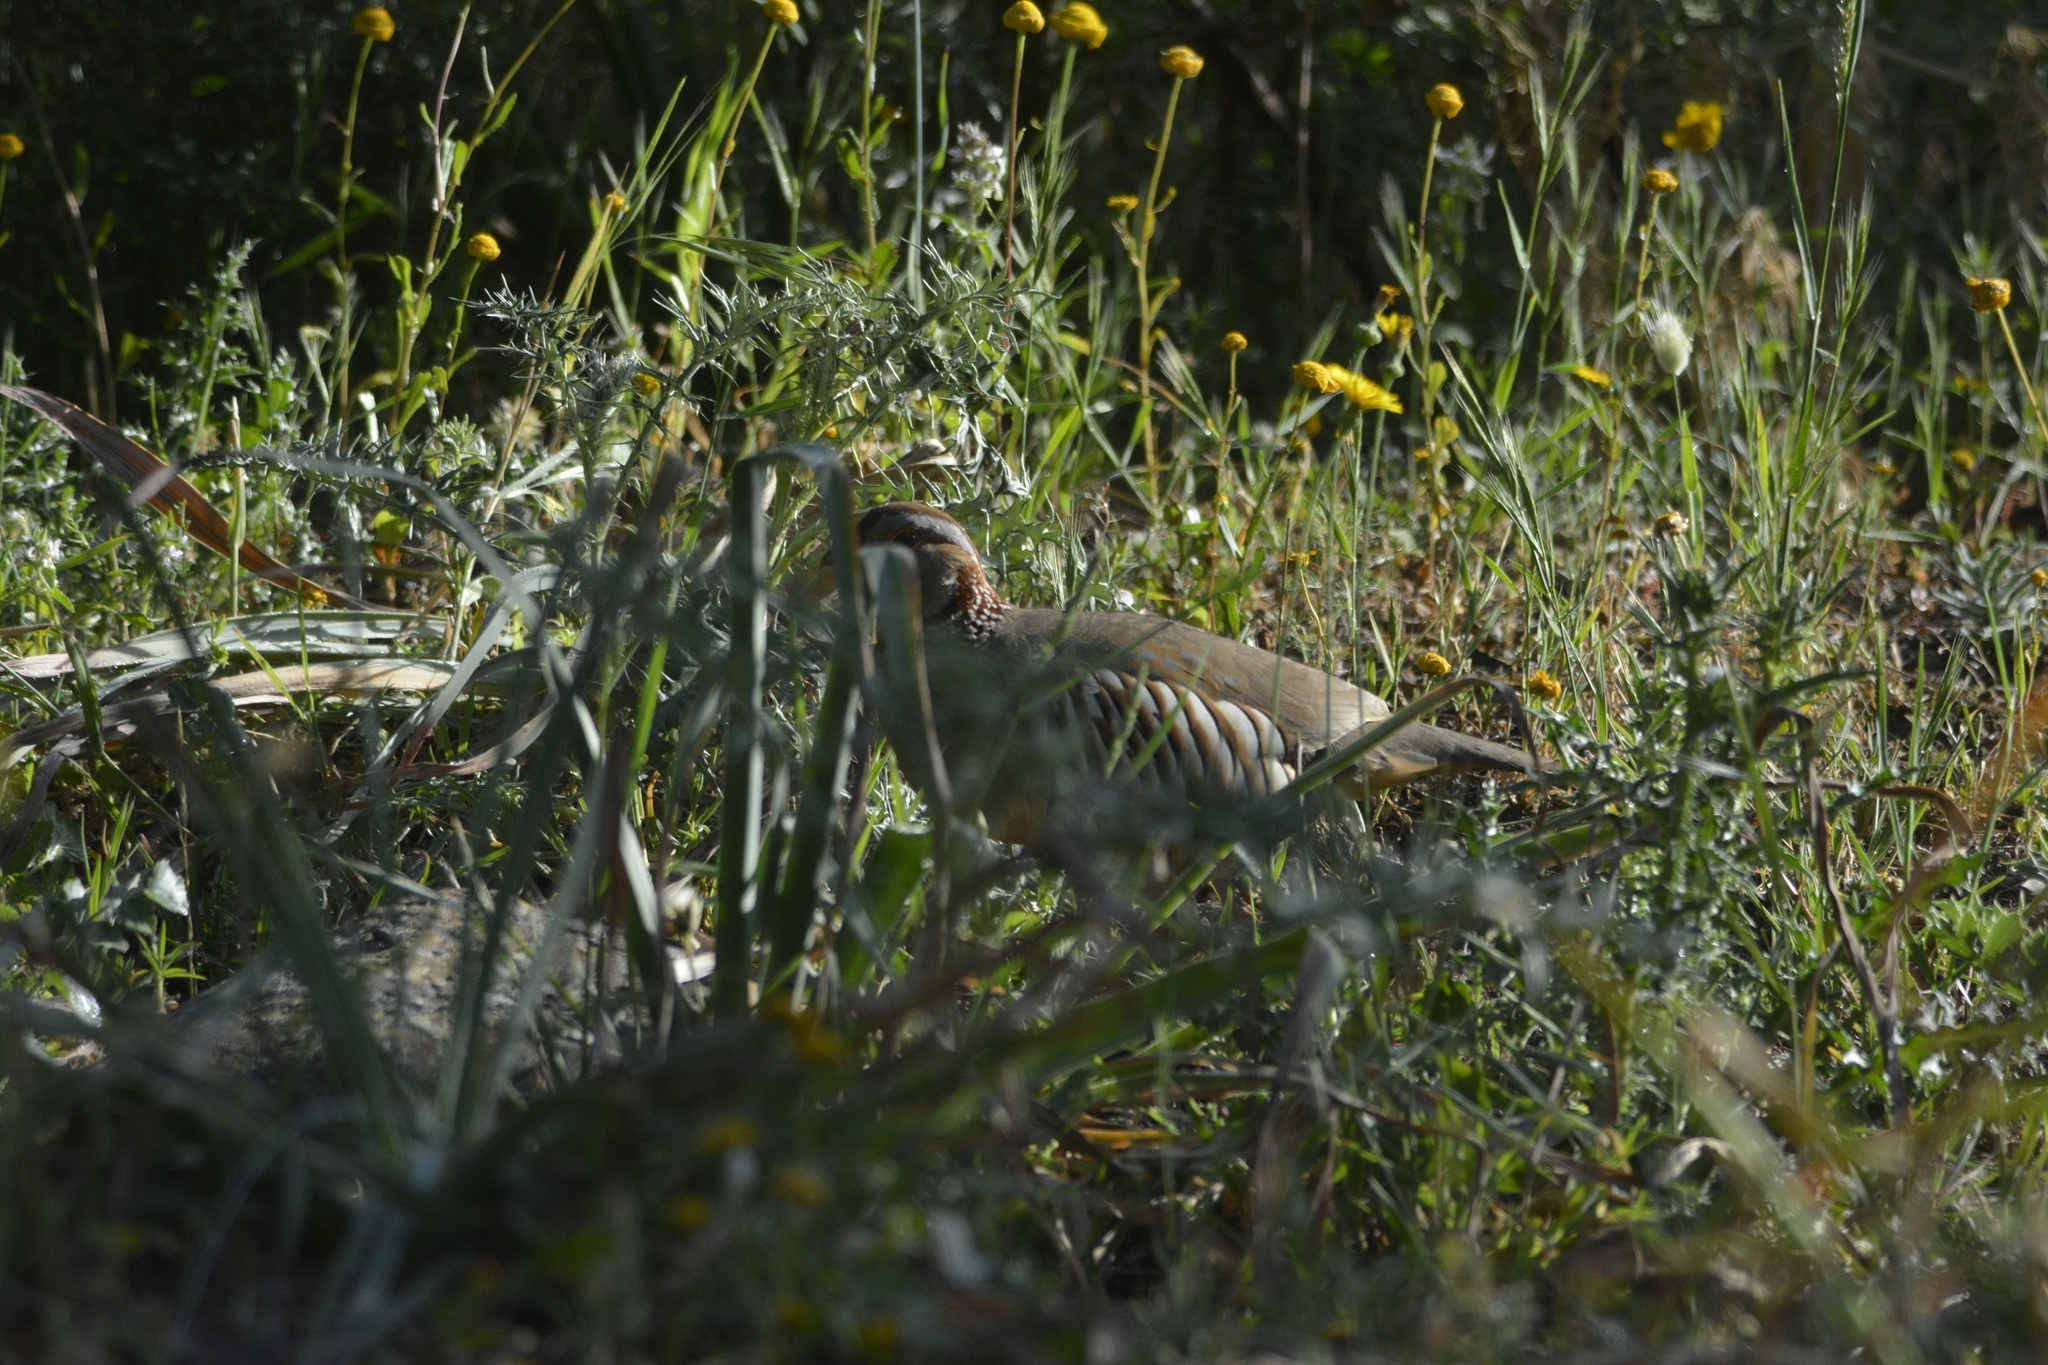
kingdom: Animalia
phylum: Chordata
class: Aves
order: Galliformes
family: Phasianidae
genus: Alectoris
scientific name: Alectoris barbara
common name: Barbary partridge
